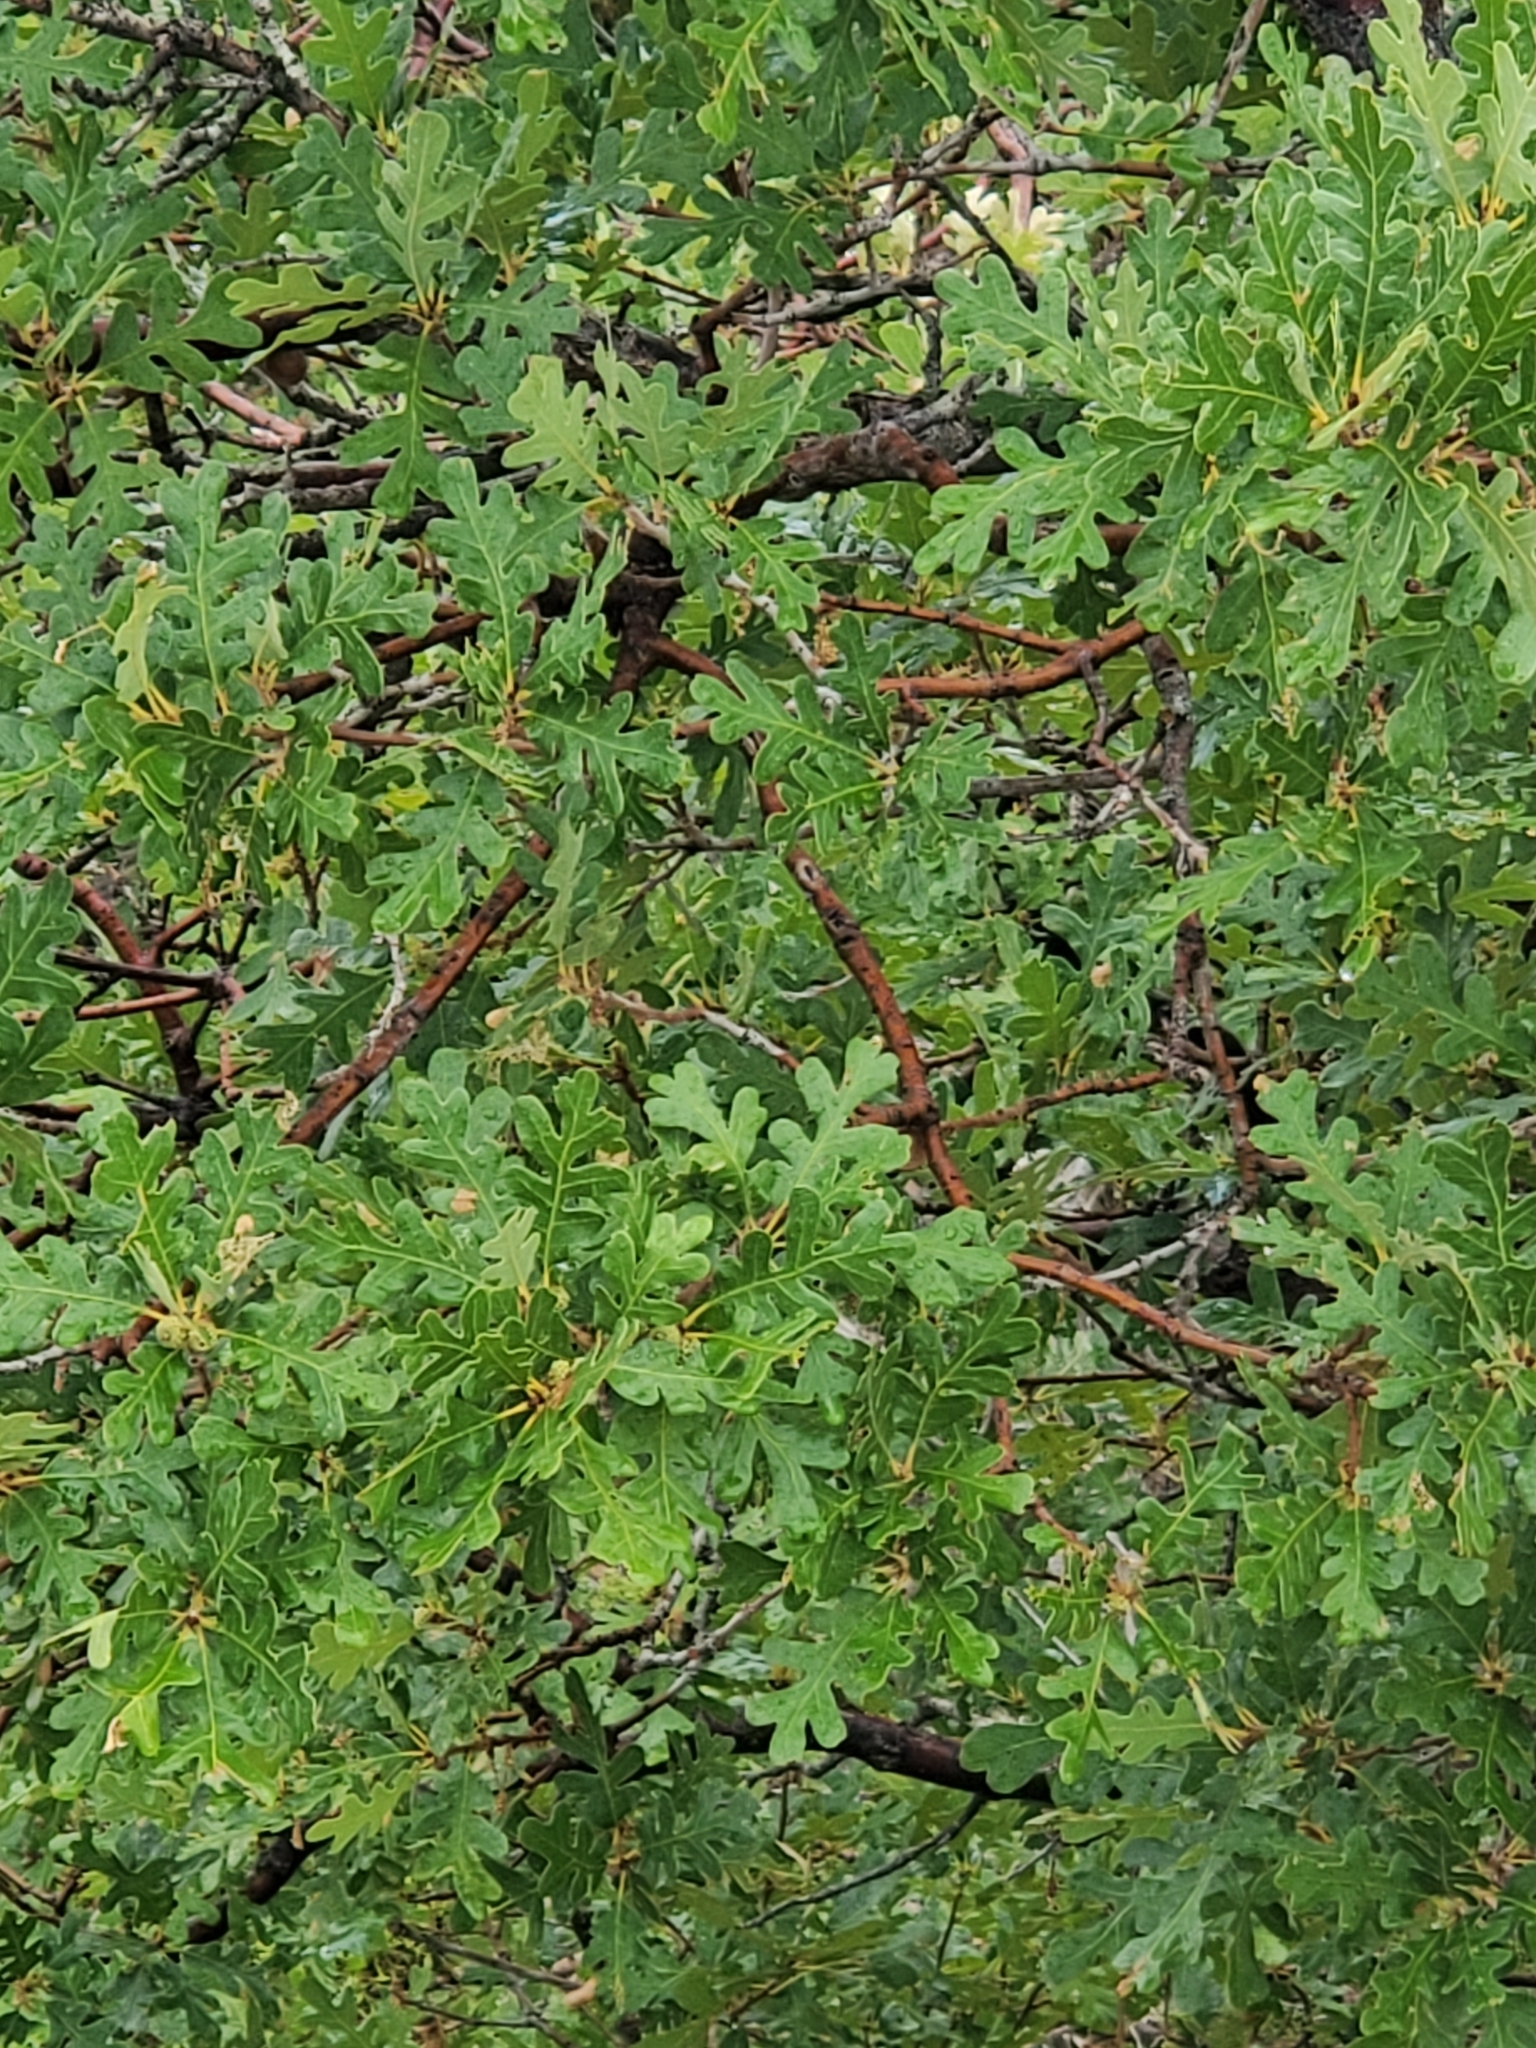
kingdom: Plantae
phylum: Tracheophyta
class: Magnoliopsida
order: Fagales
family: Fagaceae
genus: Quercus
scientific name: Quercus gambelii
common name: Gambel oak
